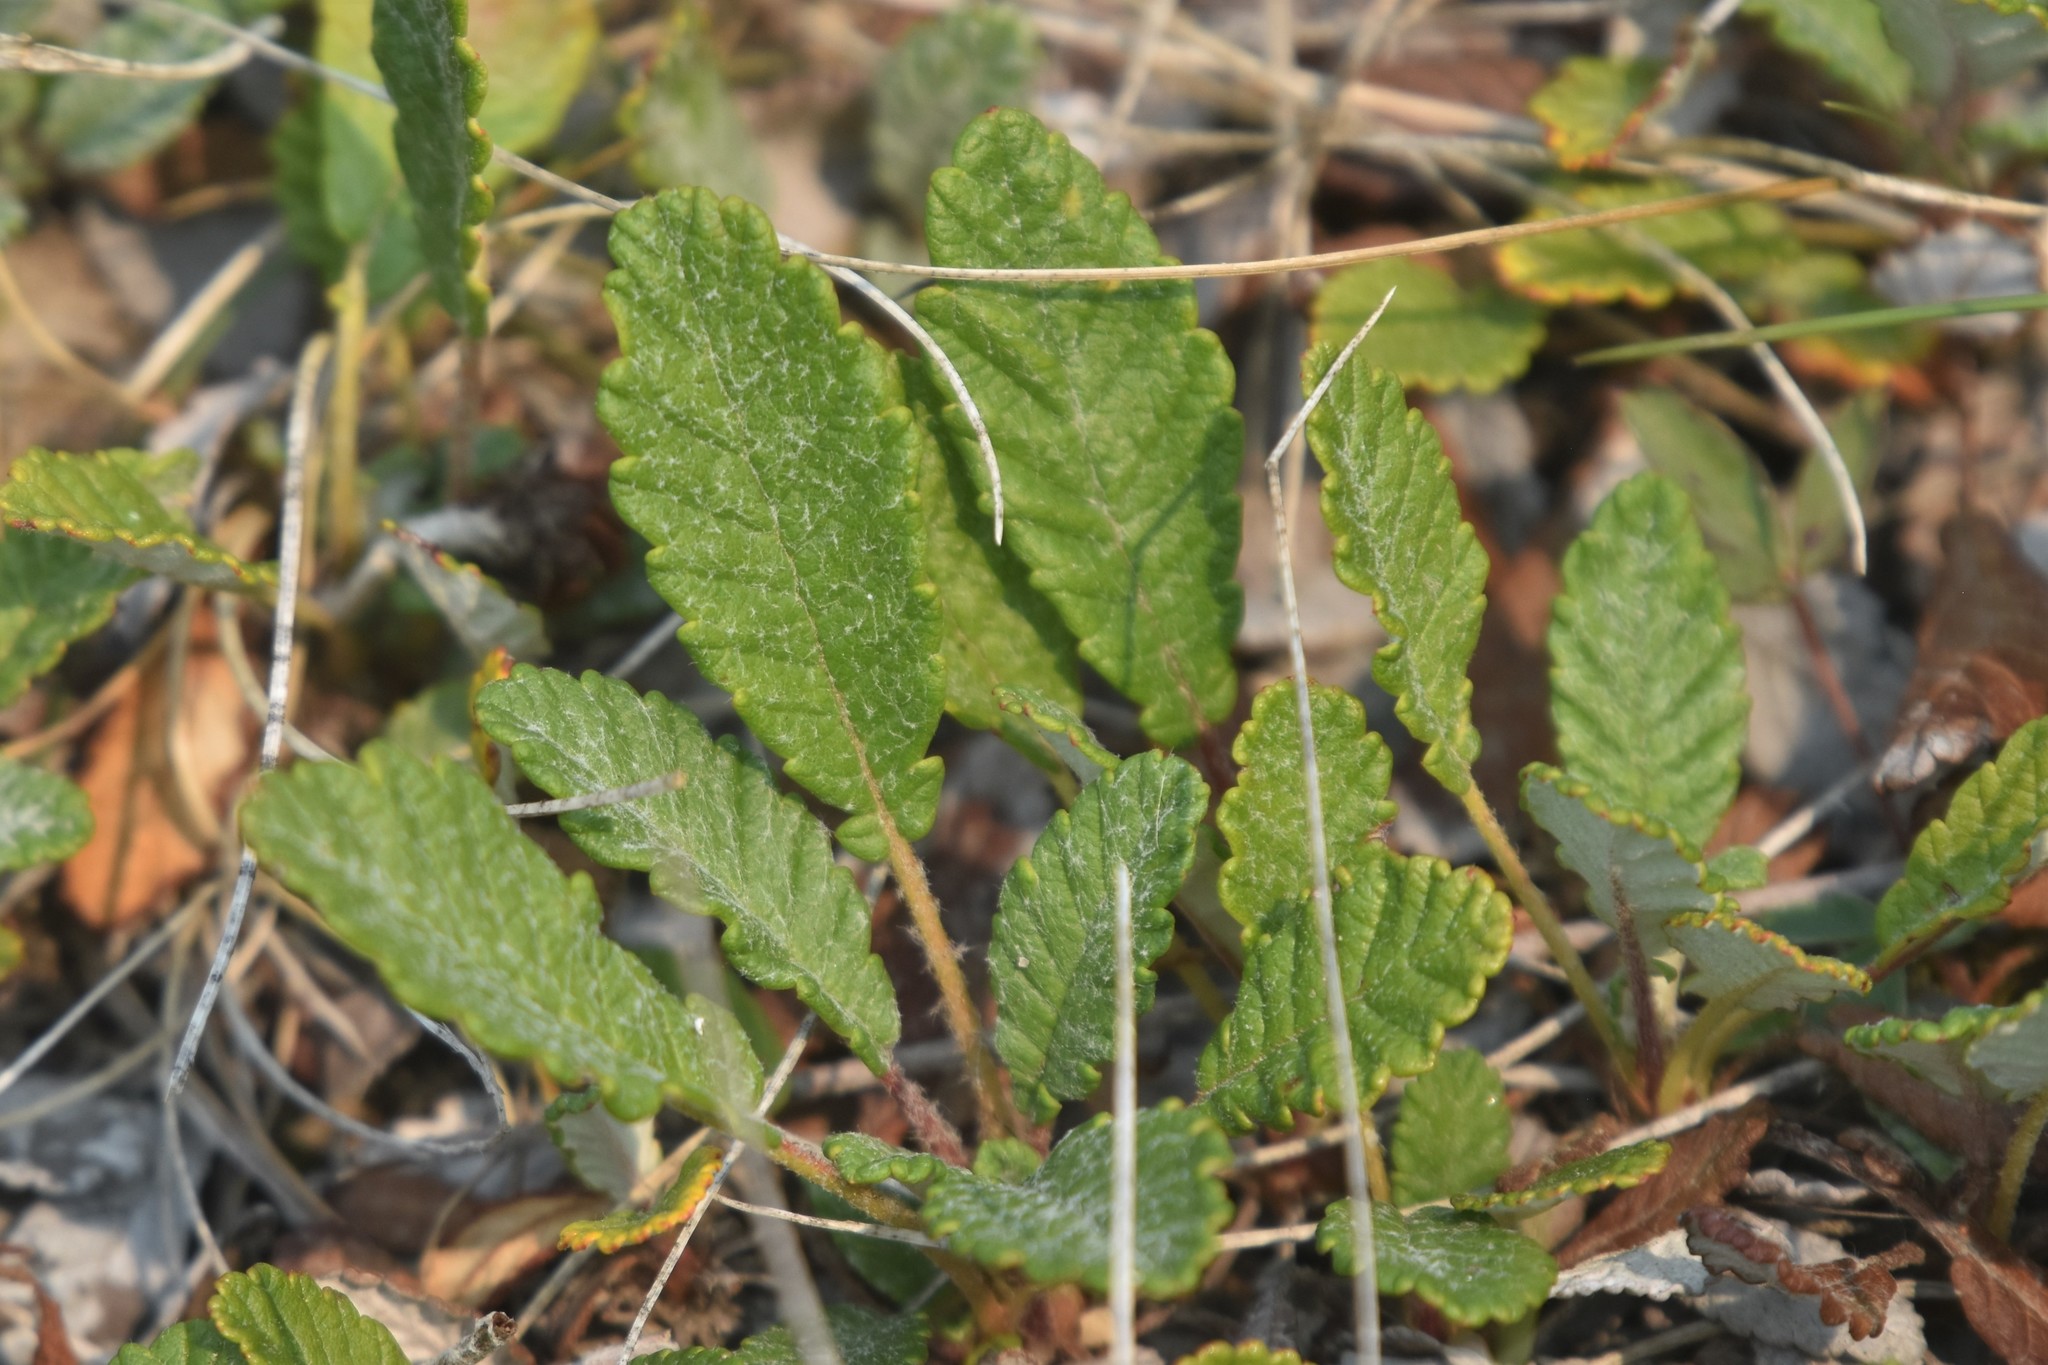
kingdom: Plantae
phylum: Tracheophyta
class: Magnoliopsida
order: Rosales
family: Rosaceae
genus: Dryas
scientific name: Dryas drummondii
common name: Drummond's dryad
